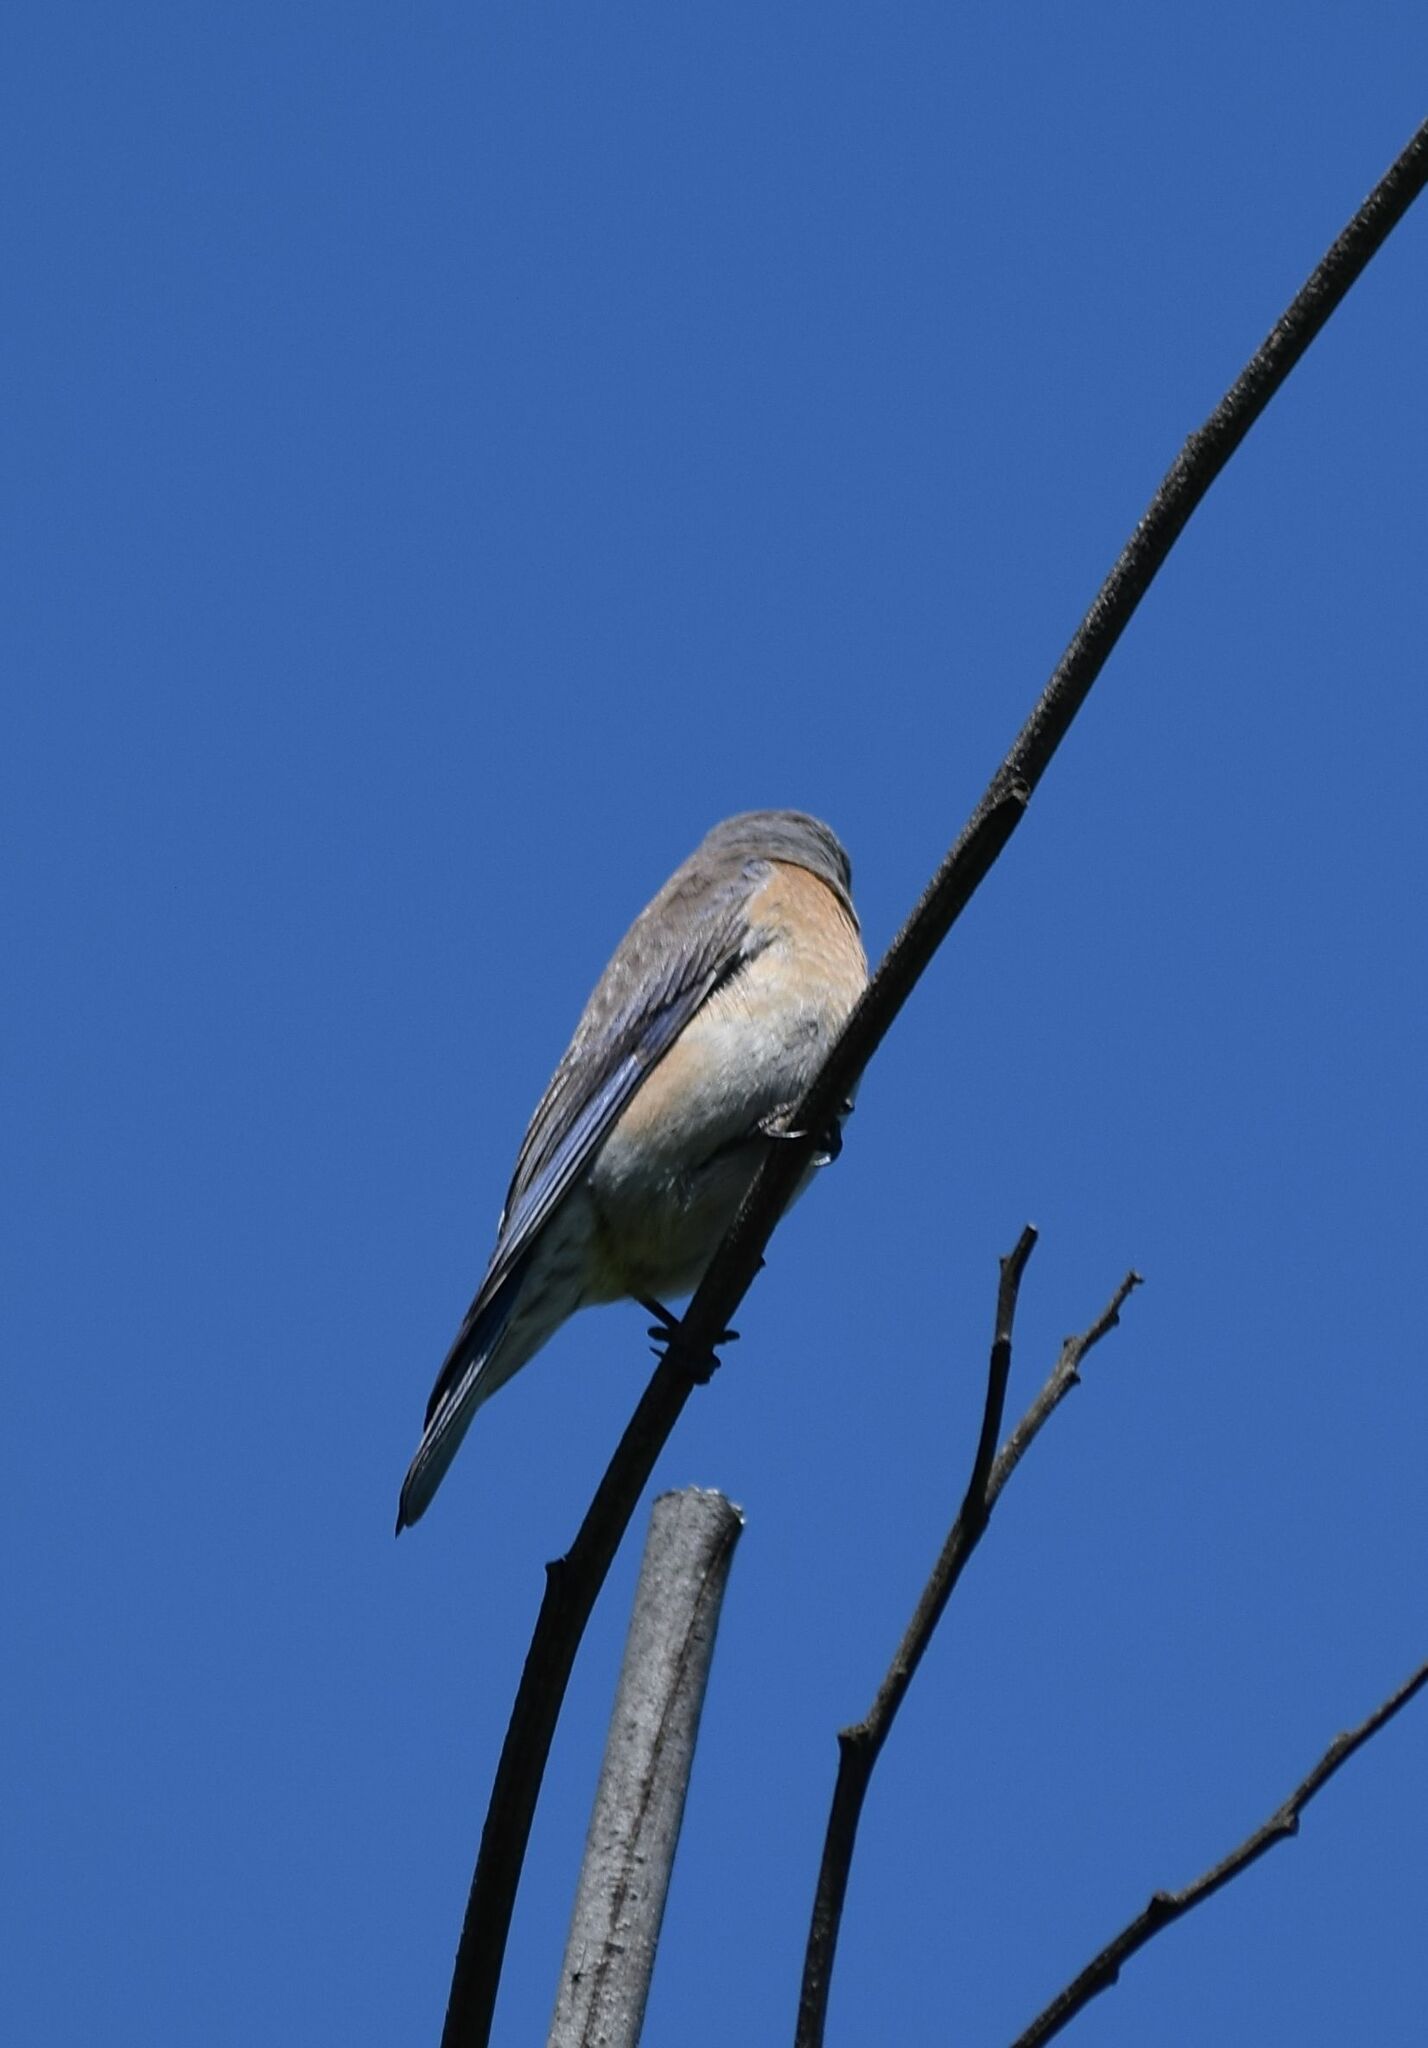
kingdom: Animalia
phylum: Chordata
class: Aves
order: Passeriformes
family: Turdidae
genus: Sialia
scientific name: Sialia mexicana
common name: Western bluebird
